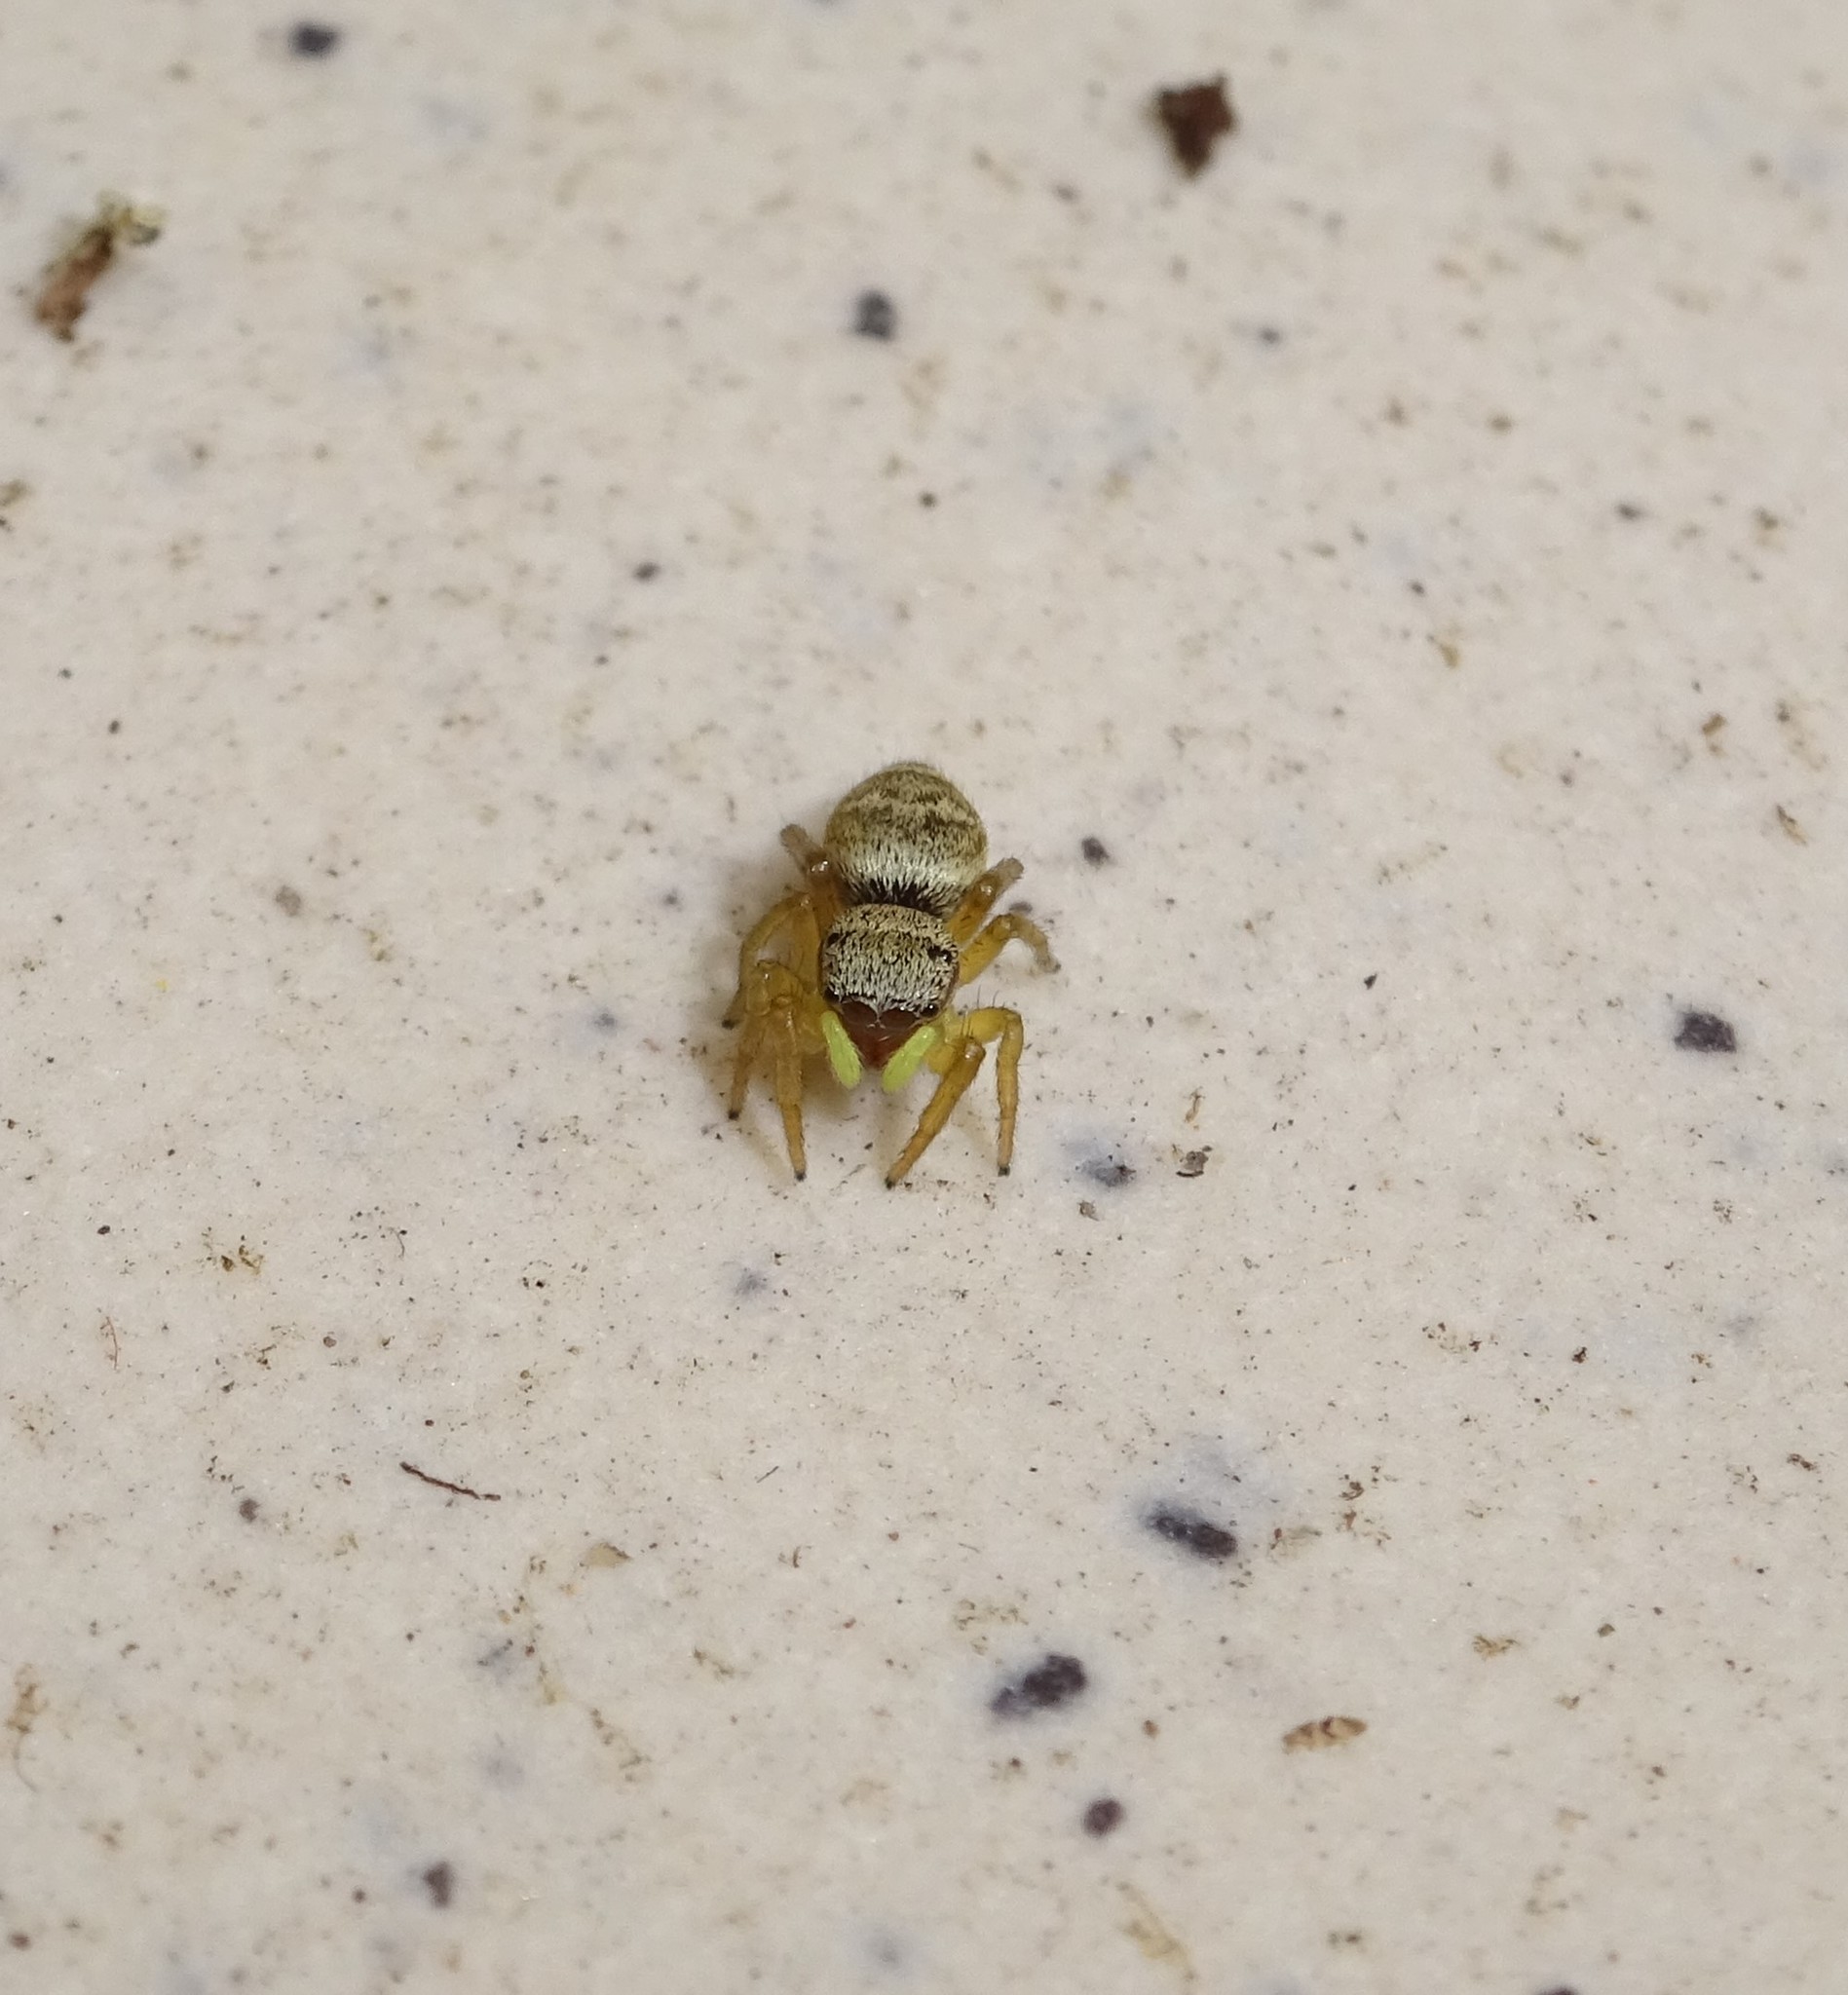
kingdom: Animalia
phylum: Arthropoda
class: Arachnida
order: Araneae
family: Salticidae
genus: Heliophanus
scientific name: Heliophanus tribulosus
